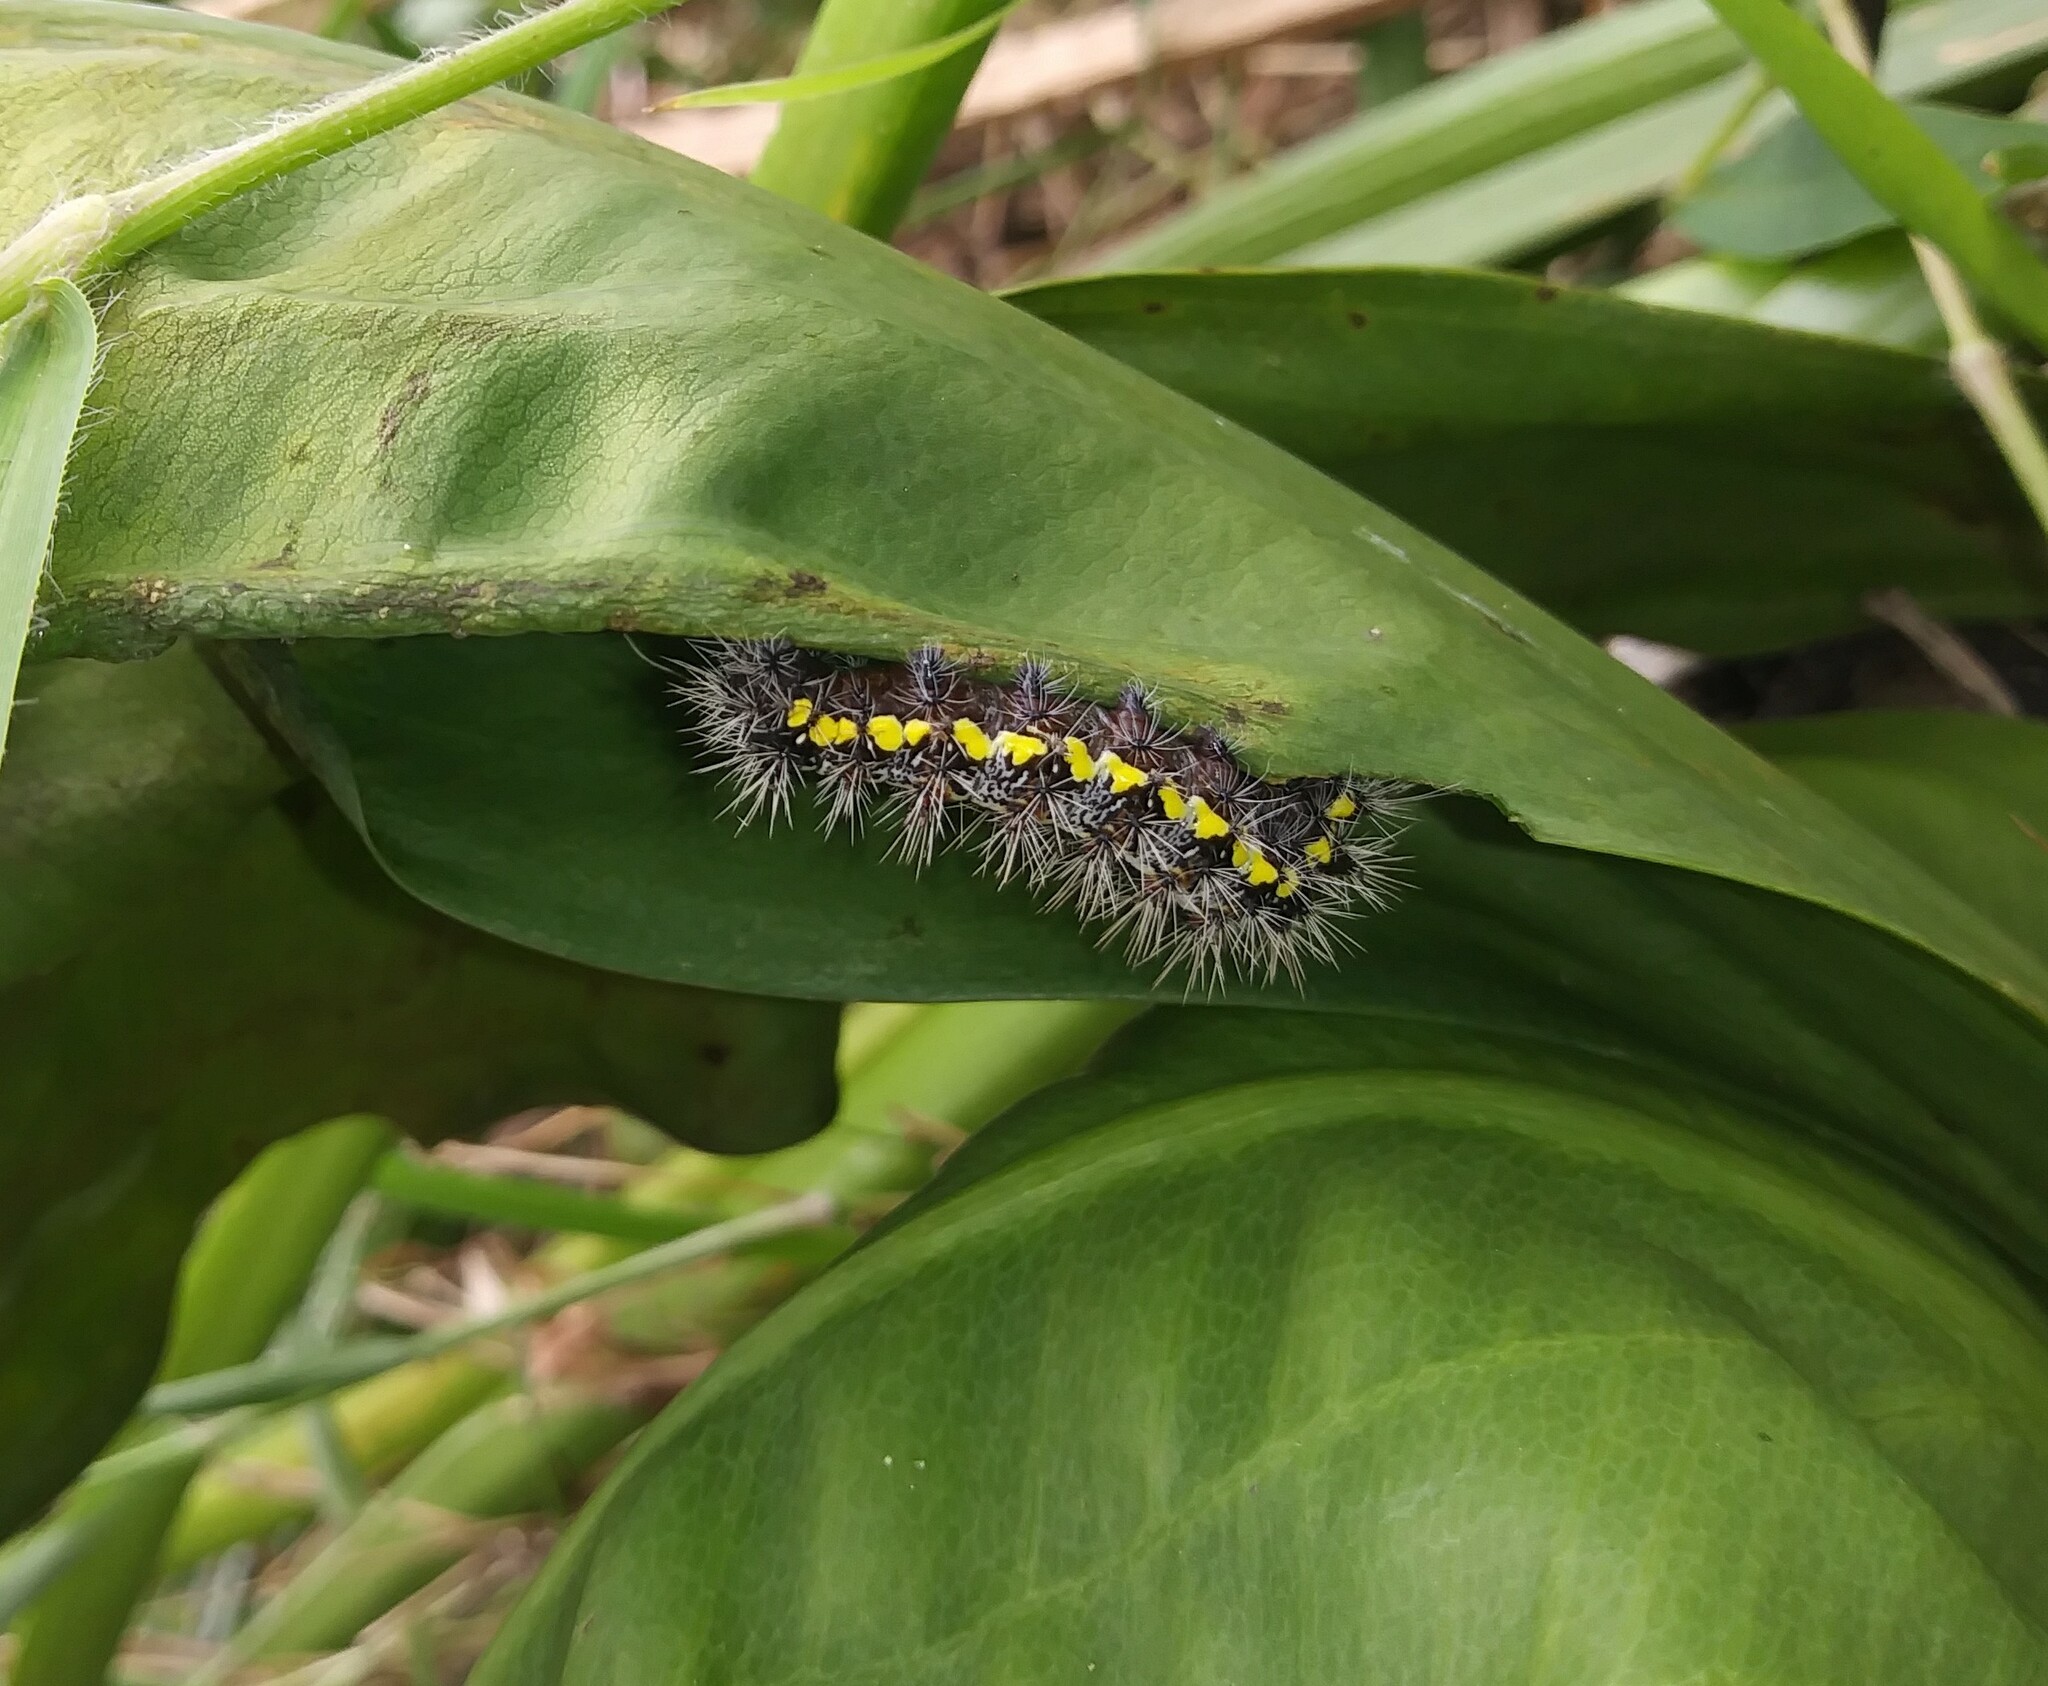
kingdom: Animalia
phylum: Arthropoda
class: Insecta
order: Lepidoptera
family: Noctuidae
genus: Acronicta
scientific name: Acronicta oblinita
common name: Smeared dagger
